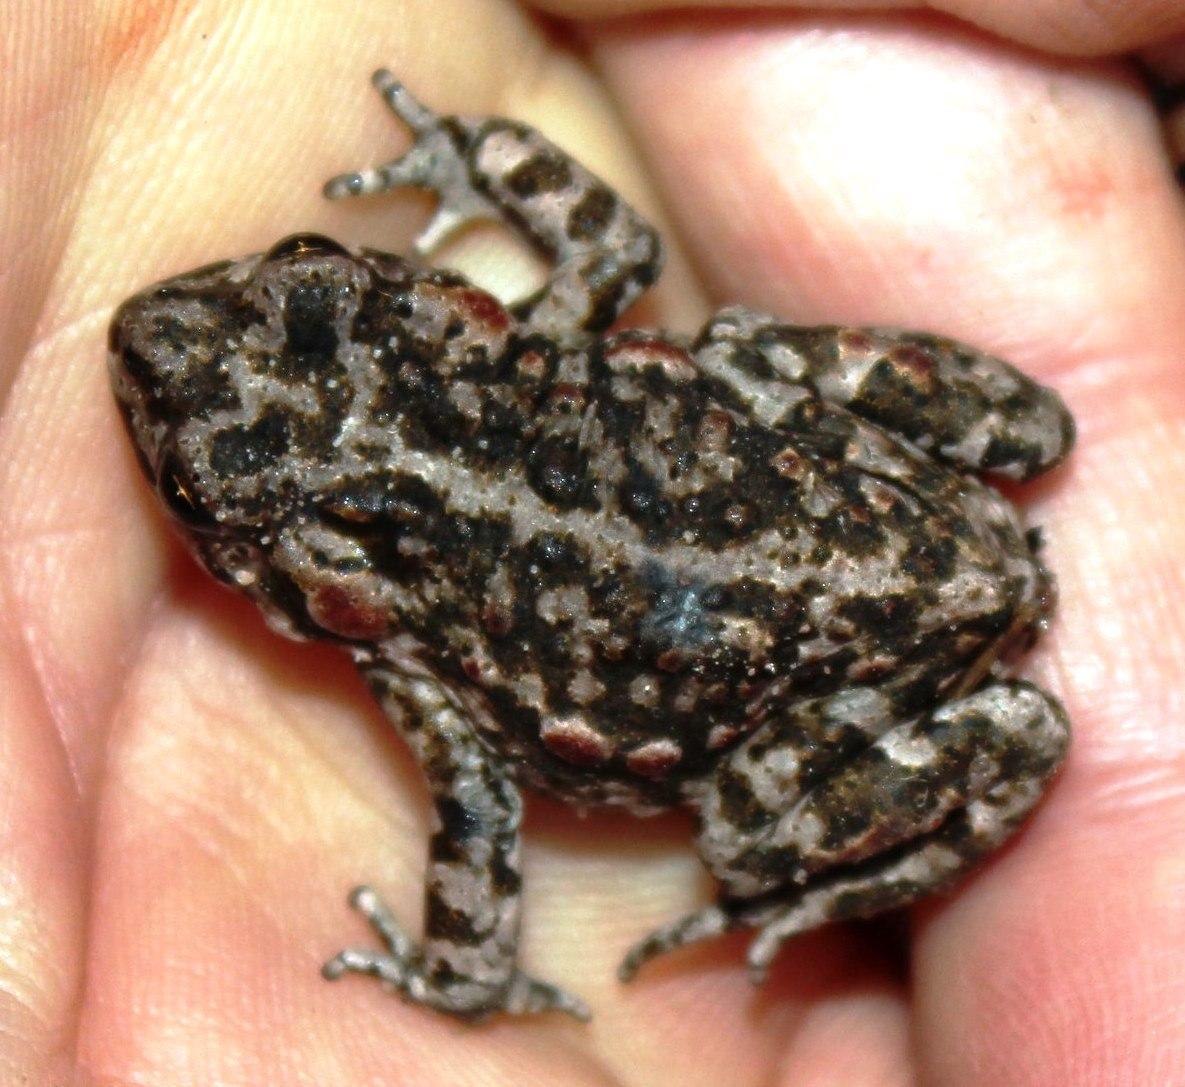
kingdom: Animalia
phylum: Chordata
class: Amphibia
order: Anura
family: Bufonidae
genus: Capensibufo
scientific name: Capensibufo tradouwi
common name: Tradouw mountain toadlet
